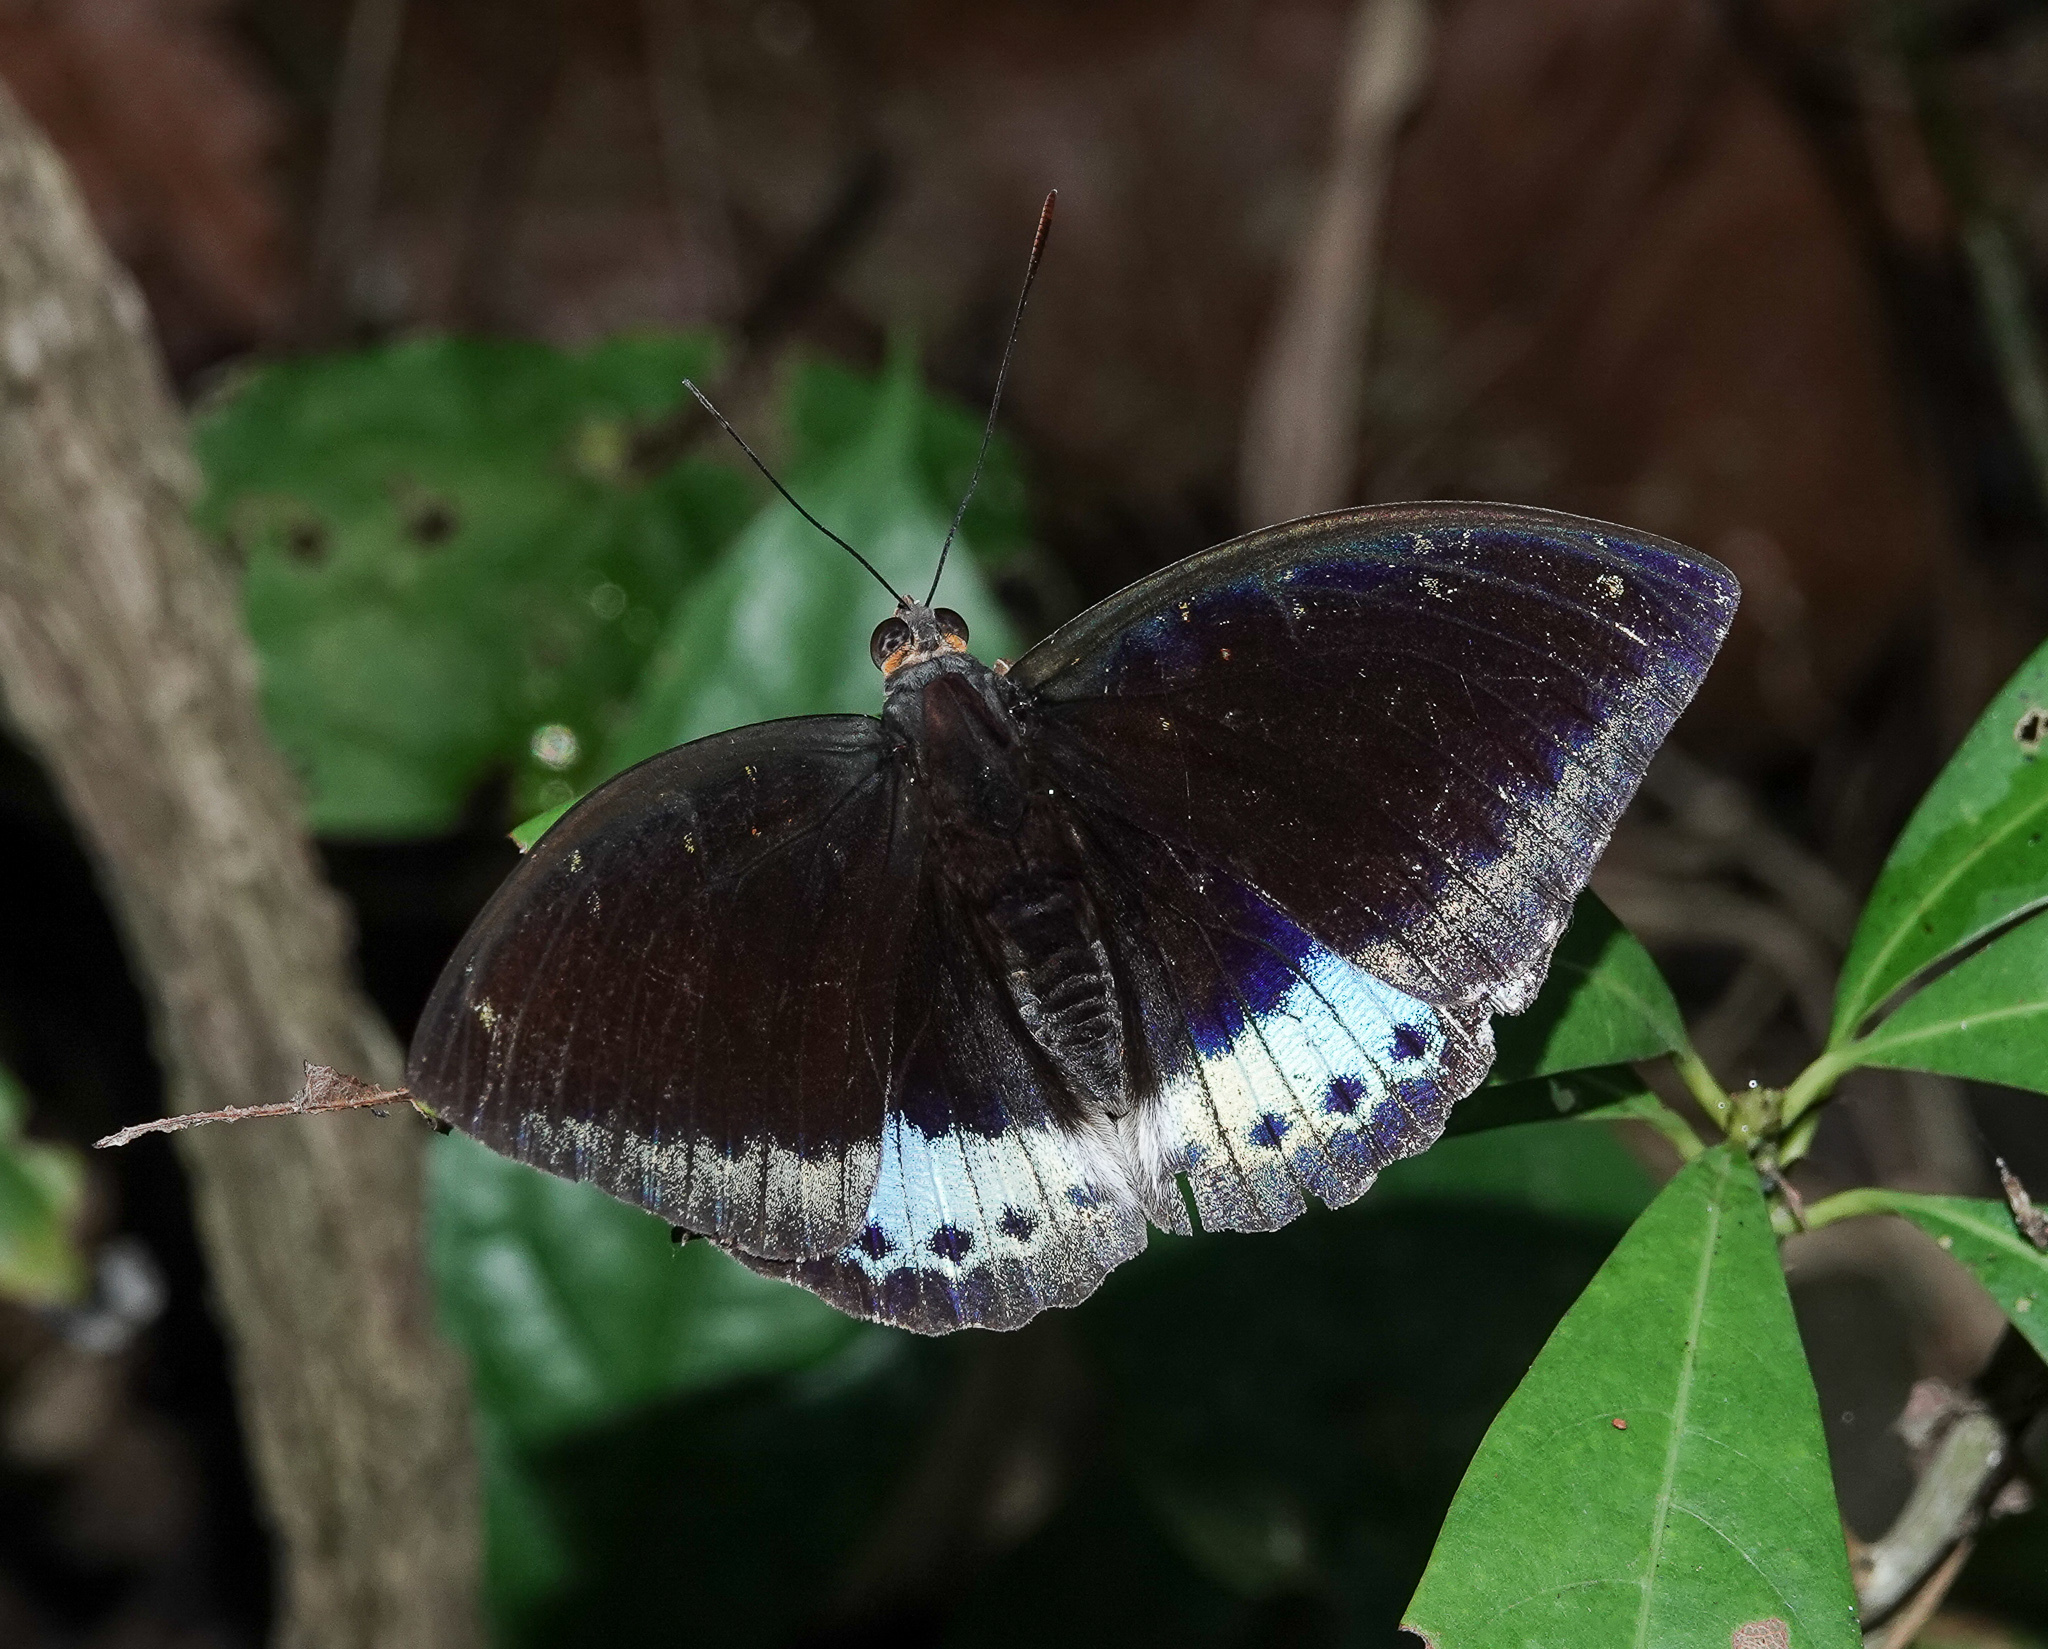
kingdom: Animalia
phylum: Arthropoda
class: Insecta
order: Lepidoptera
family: Nymphalidae
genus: Lexias
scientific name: Lexias dirtea
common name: Black-tipped archduke
